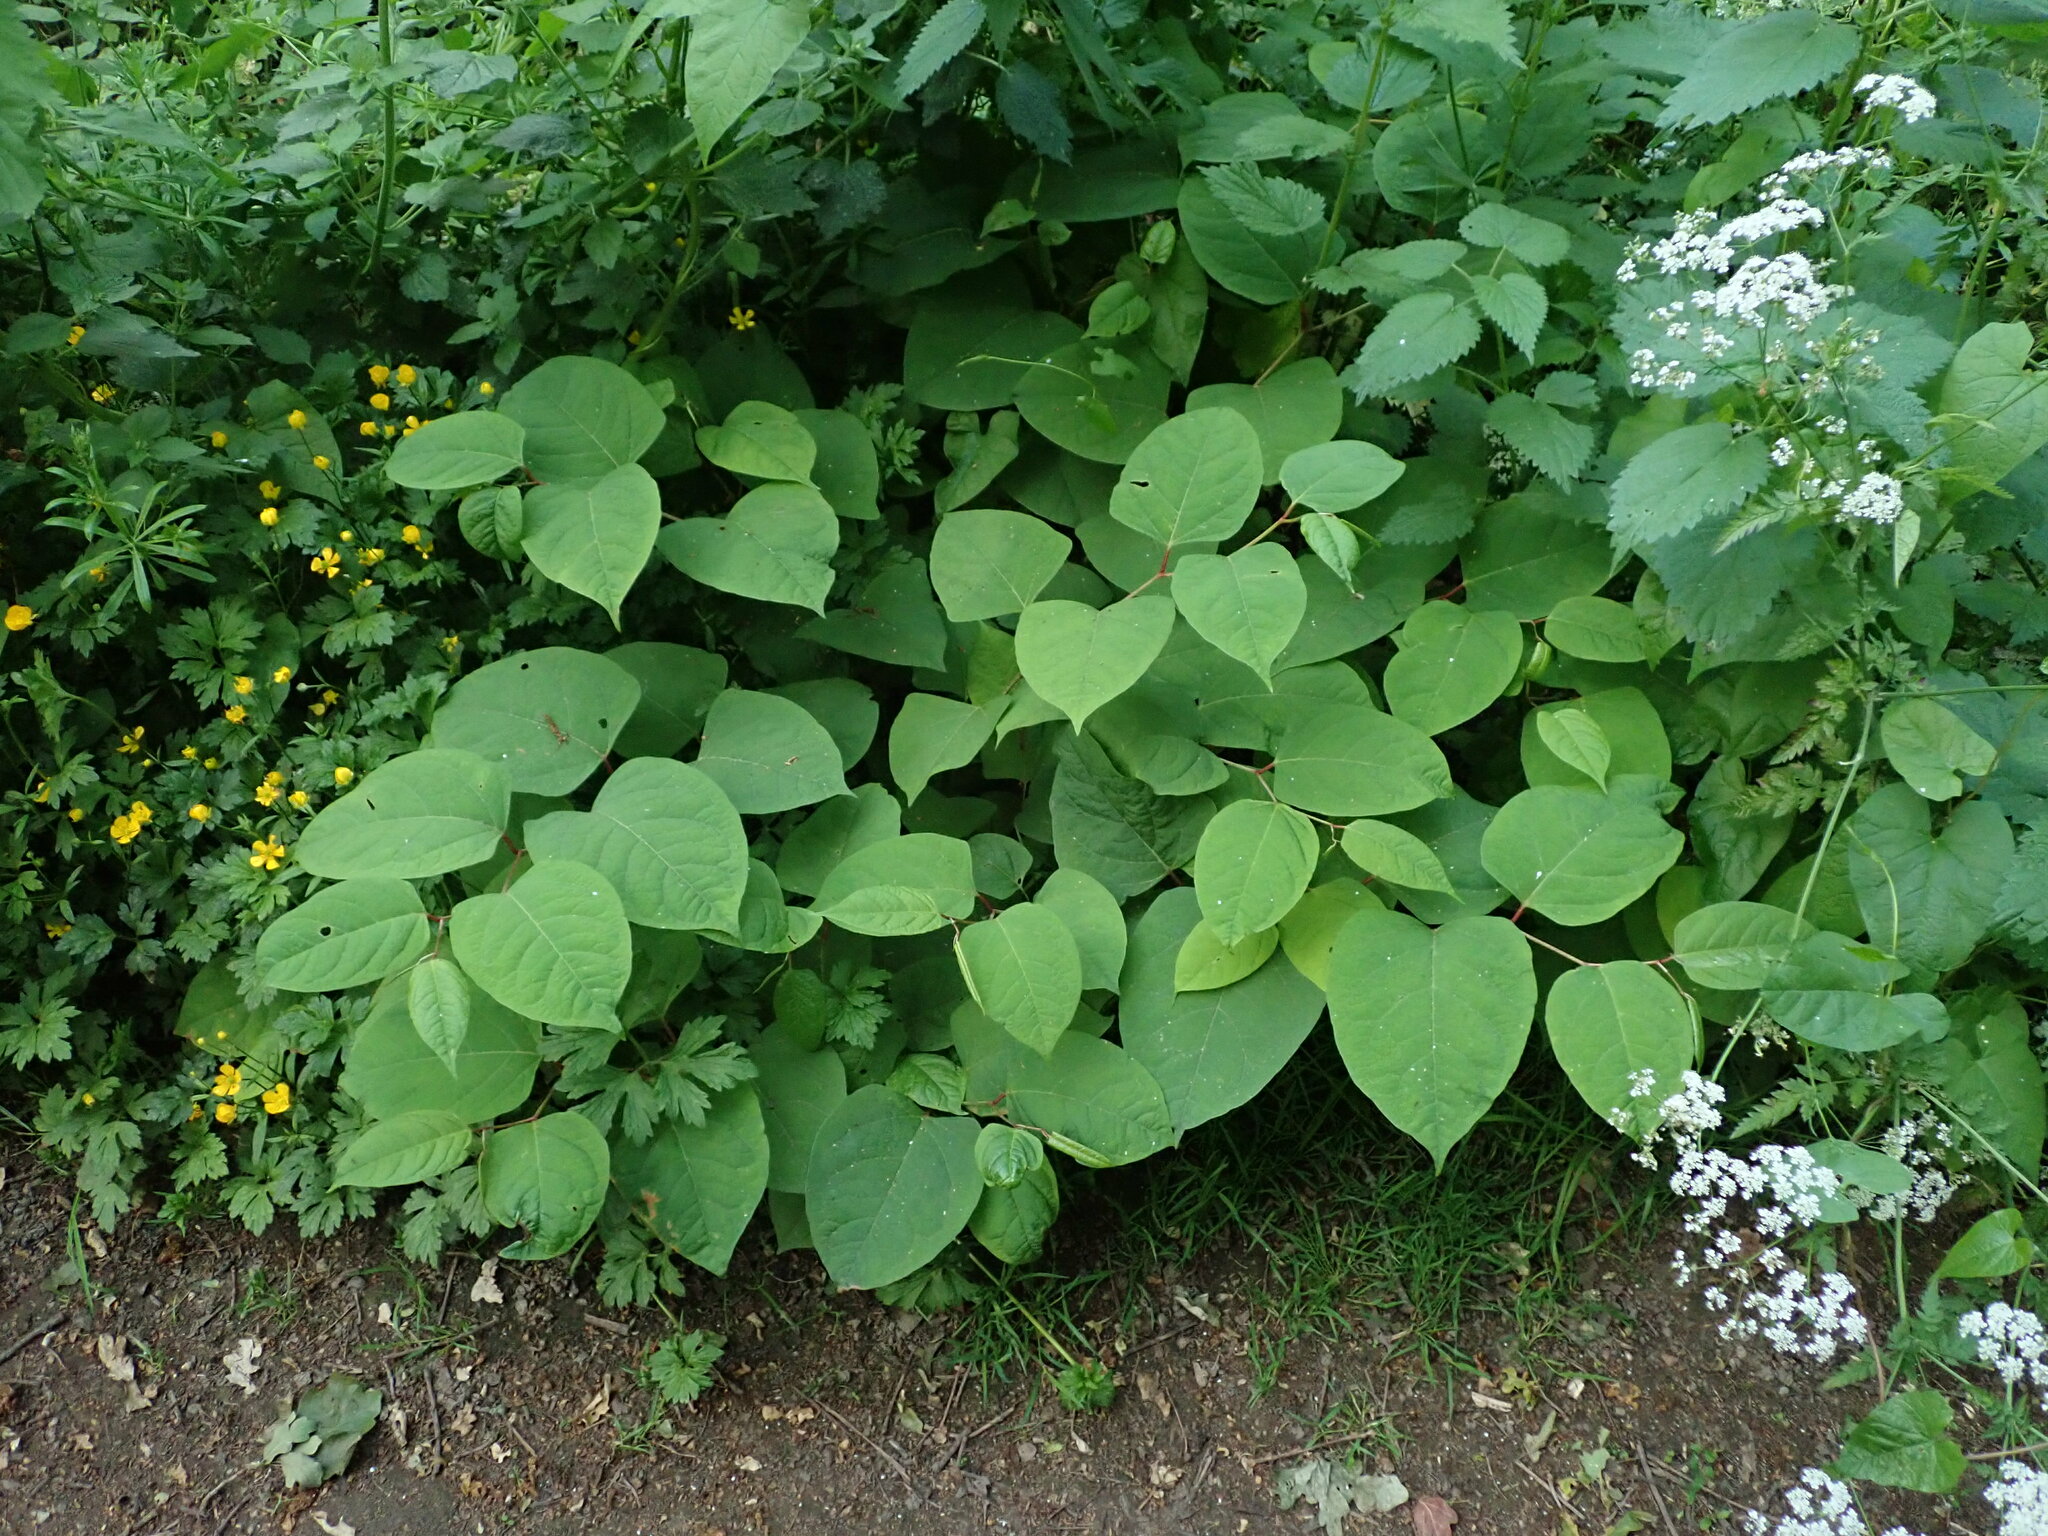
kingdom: Plantae
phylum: Tracheophyta
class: Magnoliopsida
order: Caryophyllales
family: Polygonaceae
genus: Reynoutria
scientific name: Reynoutria japonica
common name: Japanese knotweed
